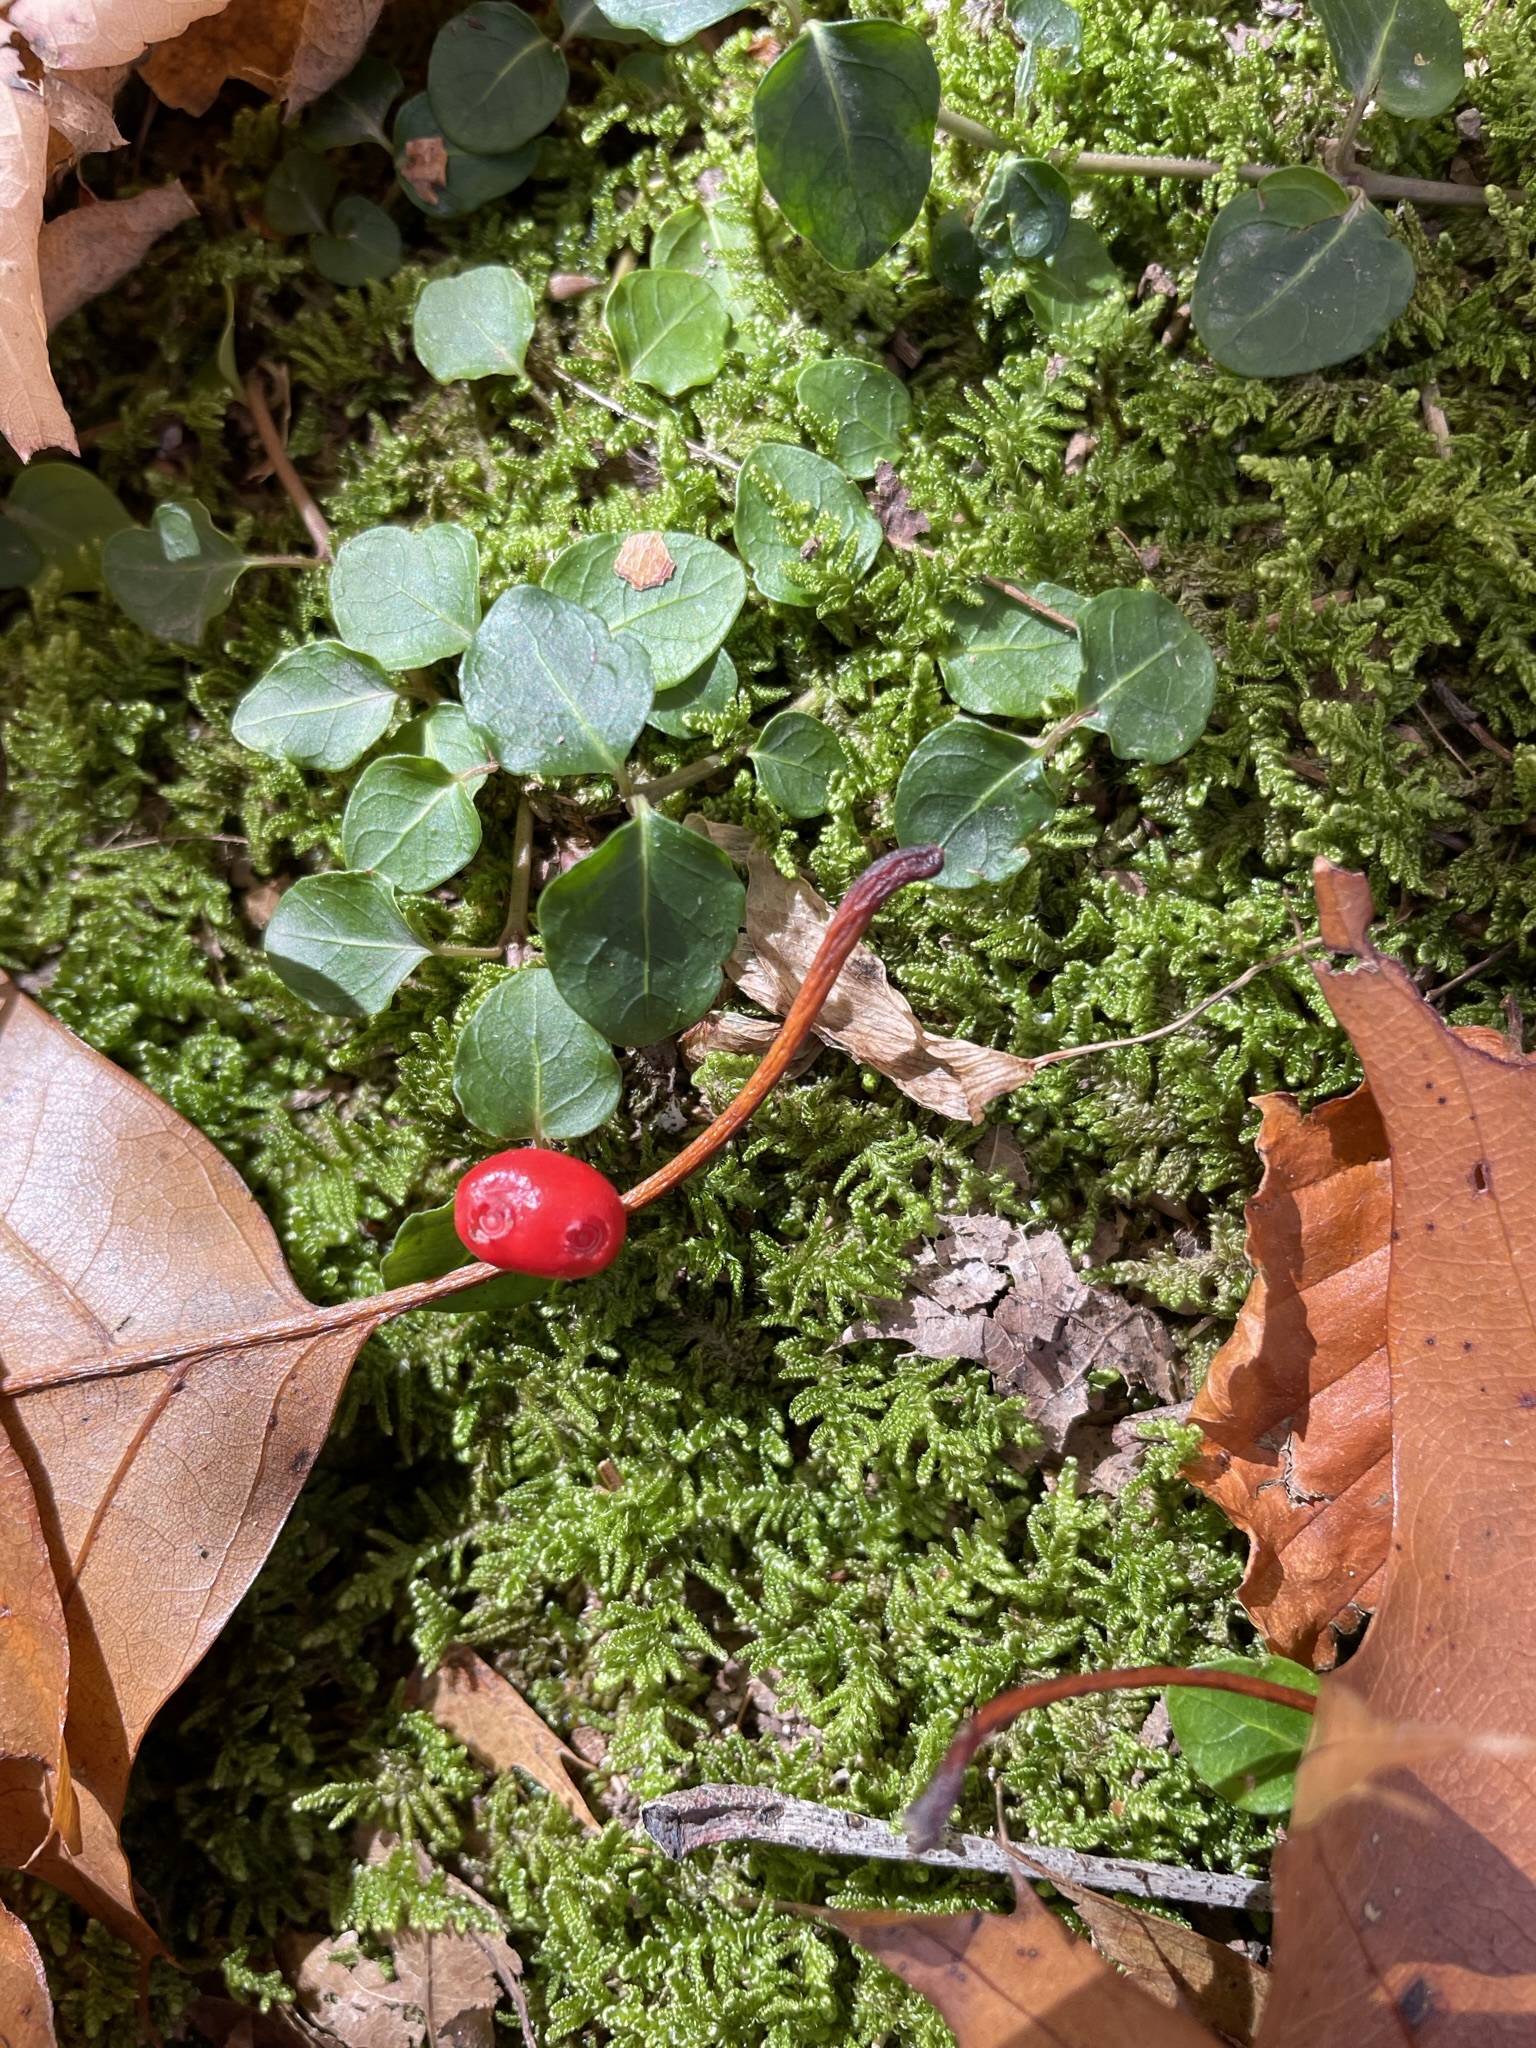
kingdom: Plantae
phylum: Tracheophyta
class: Magnoliopsida
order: Gentianales
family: Rubiaceae
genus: Mitchella
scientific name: Mitchella repens
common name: Partridge-berry
